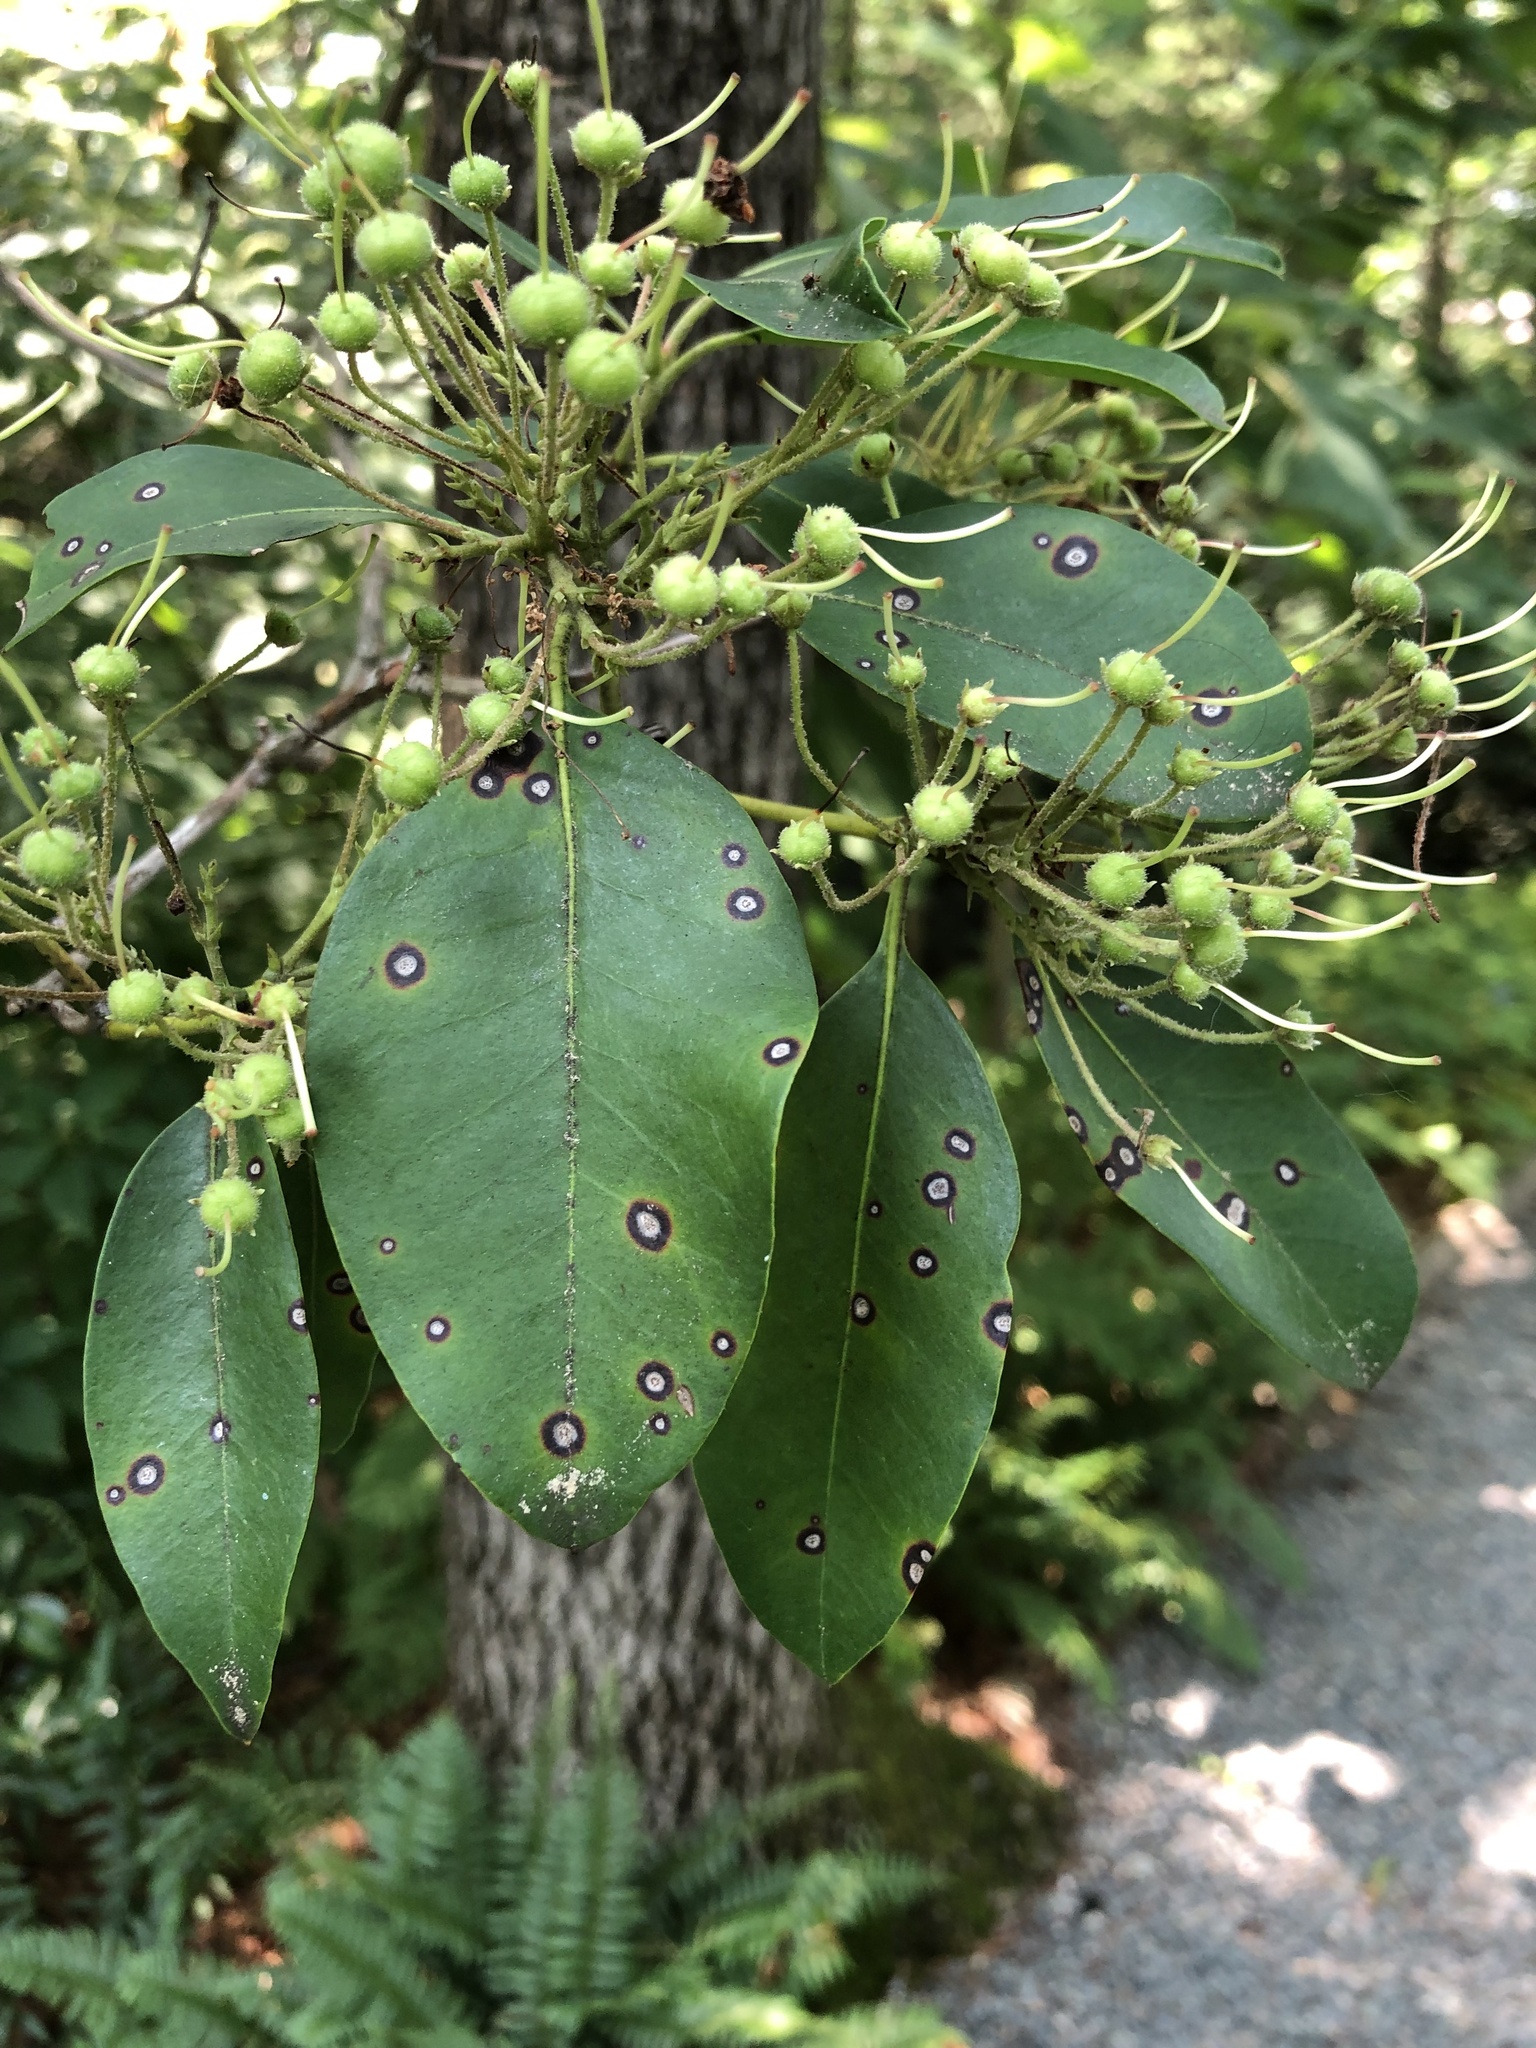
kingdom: Plantae
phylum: Tracheophyta
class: Magnoliopsida
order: Ericales
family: Ericaceae
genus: Kalmia
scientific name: Kalmia latifolia
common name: Mountain-laurel
